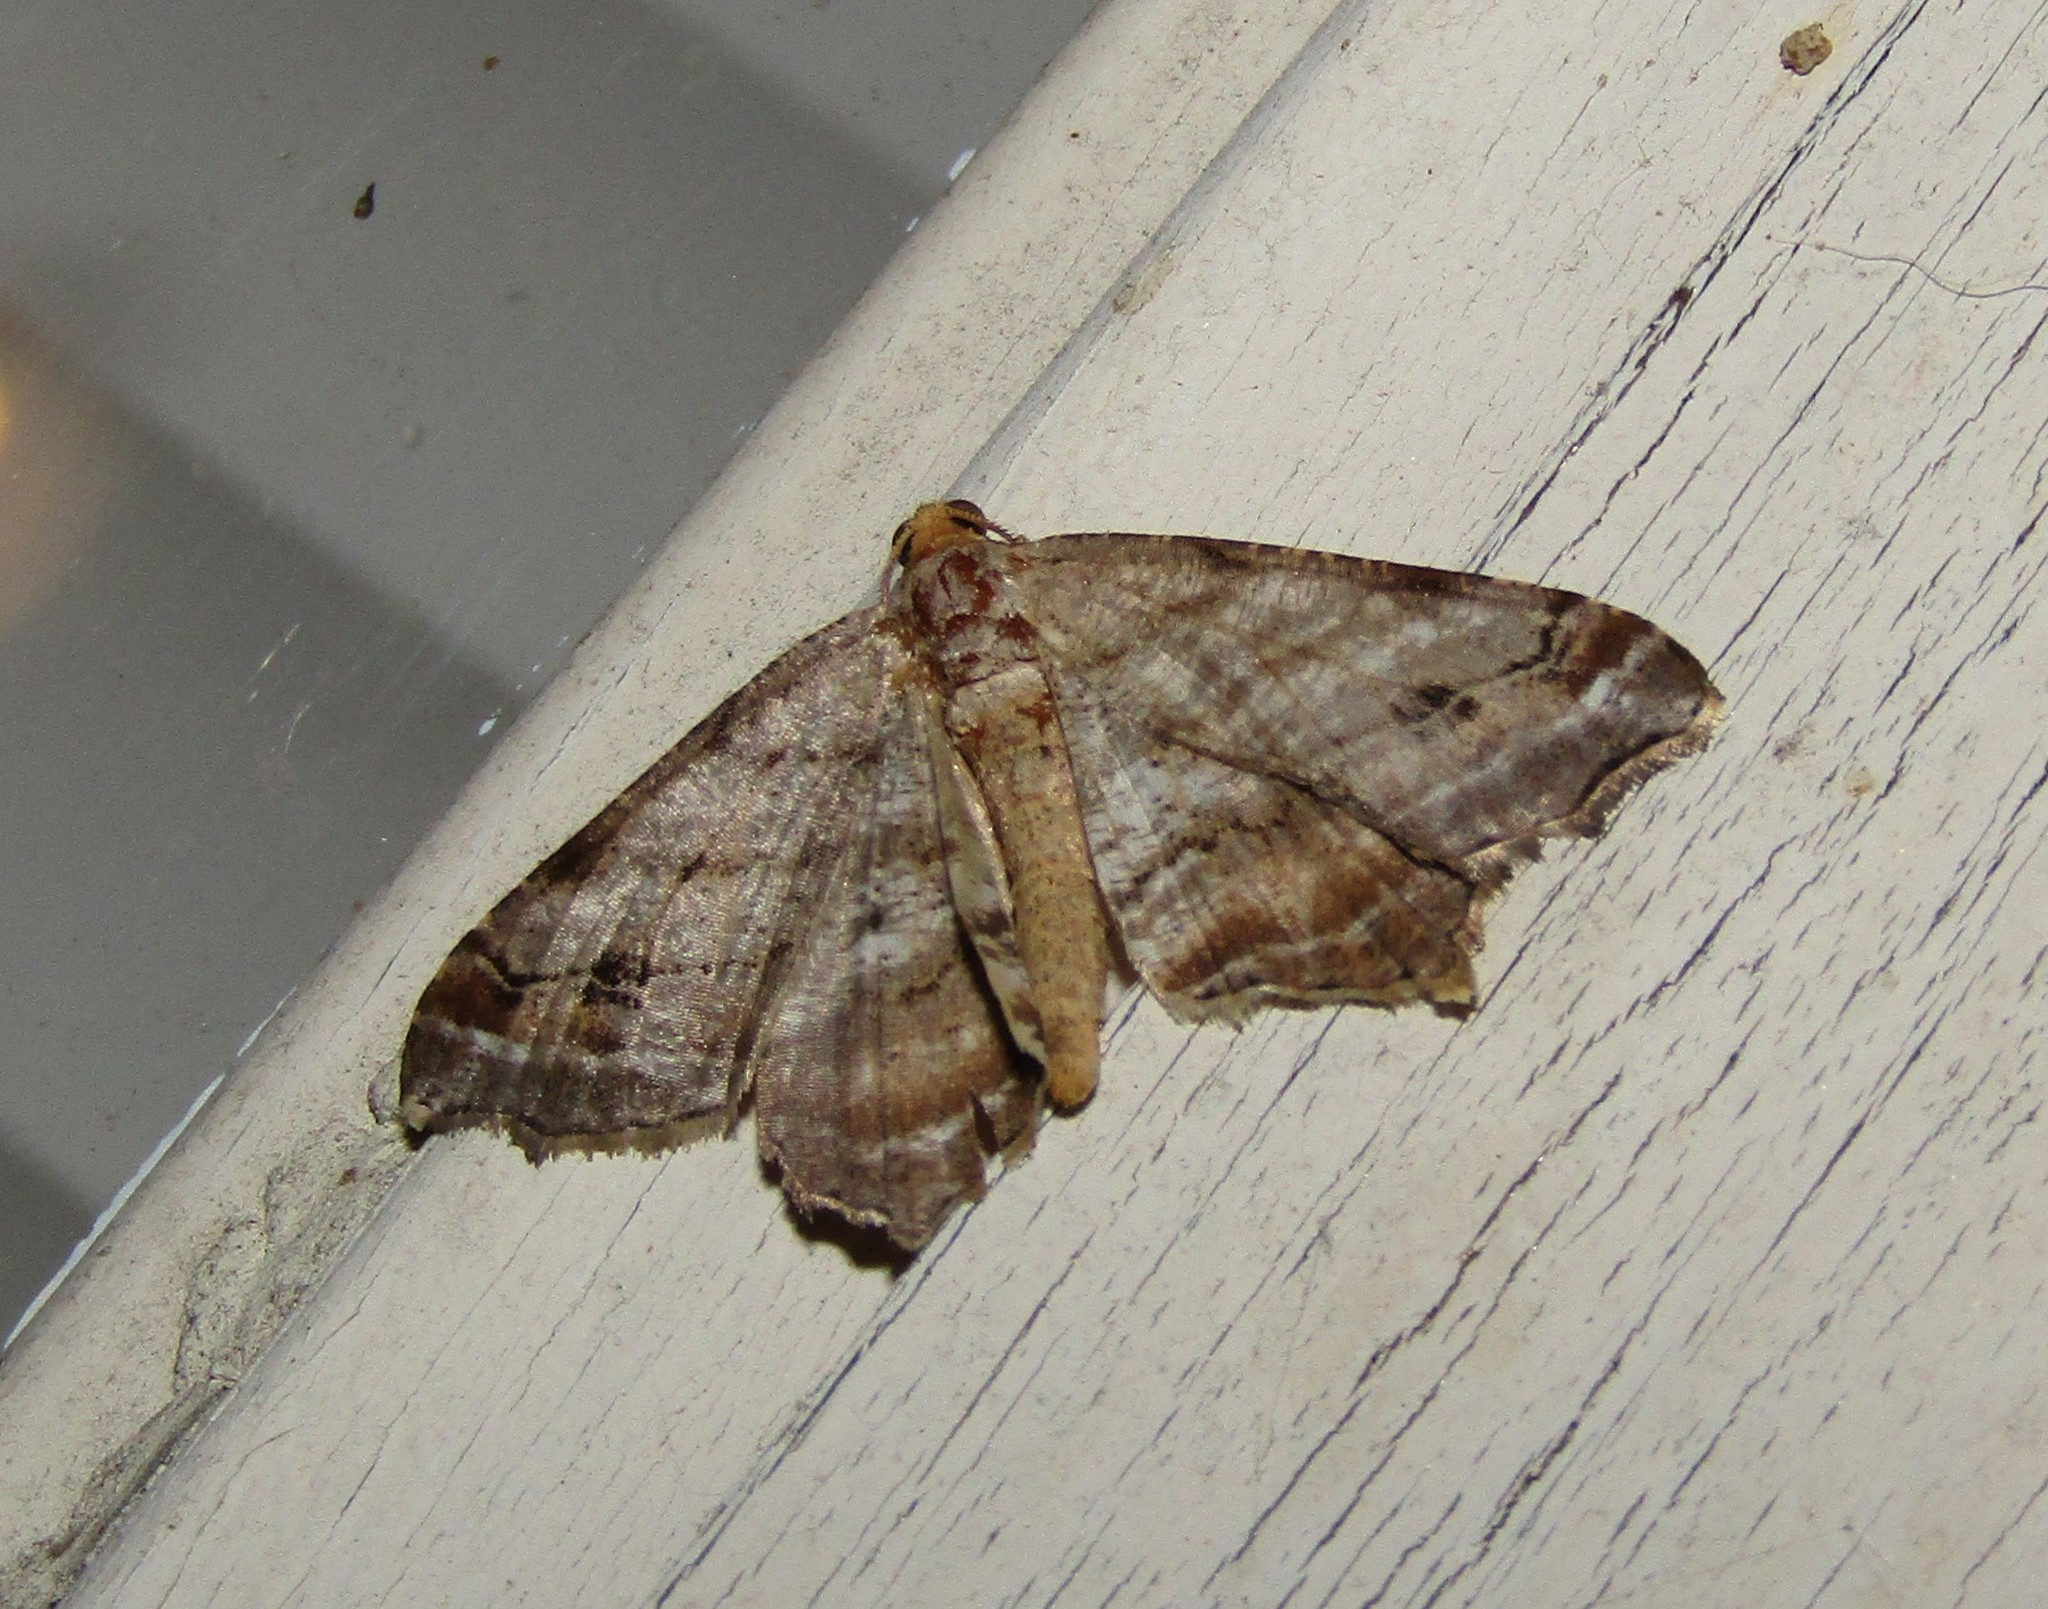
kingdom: Animalia
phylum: Arthropoda
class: Insecta
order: Lepidoptera
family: Geometridae
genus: Macaria
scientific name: Macaria multilineata
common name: Many-lined angle
